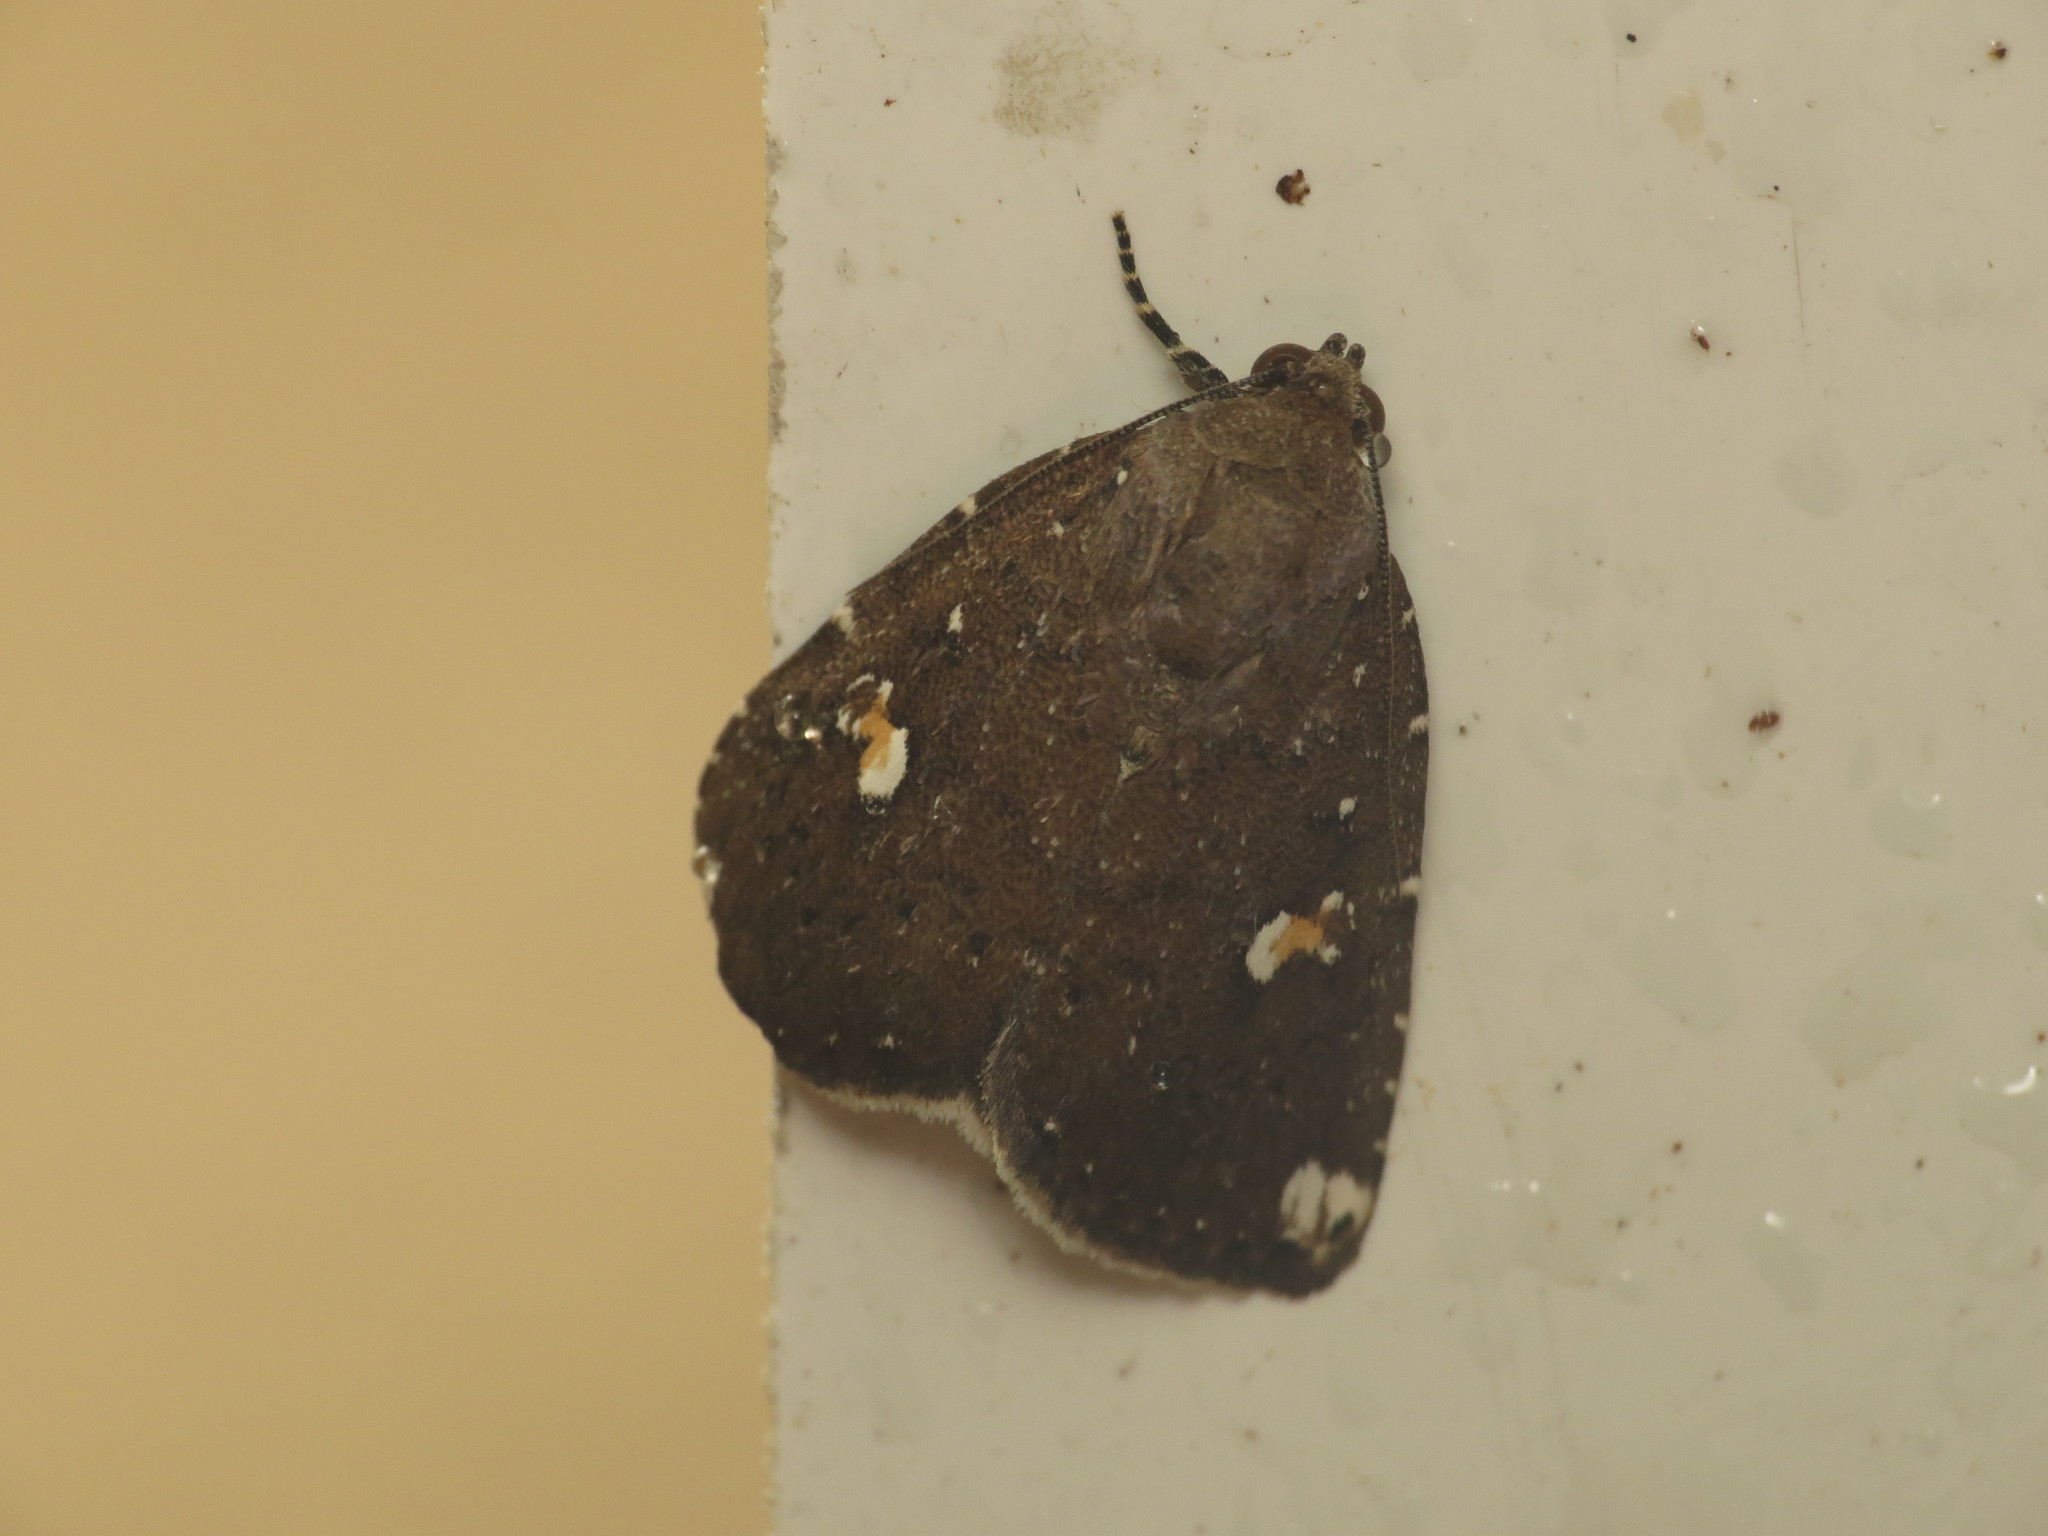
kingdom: Animalia
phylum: Arthropoda
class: Insecta
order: Lepidoptera
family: Noctuidae
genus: Amyna
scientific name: Amyna apicipuncta
